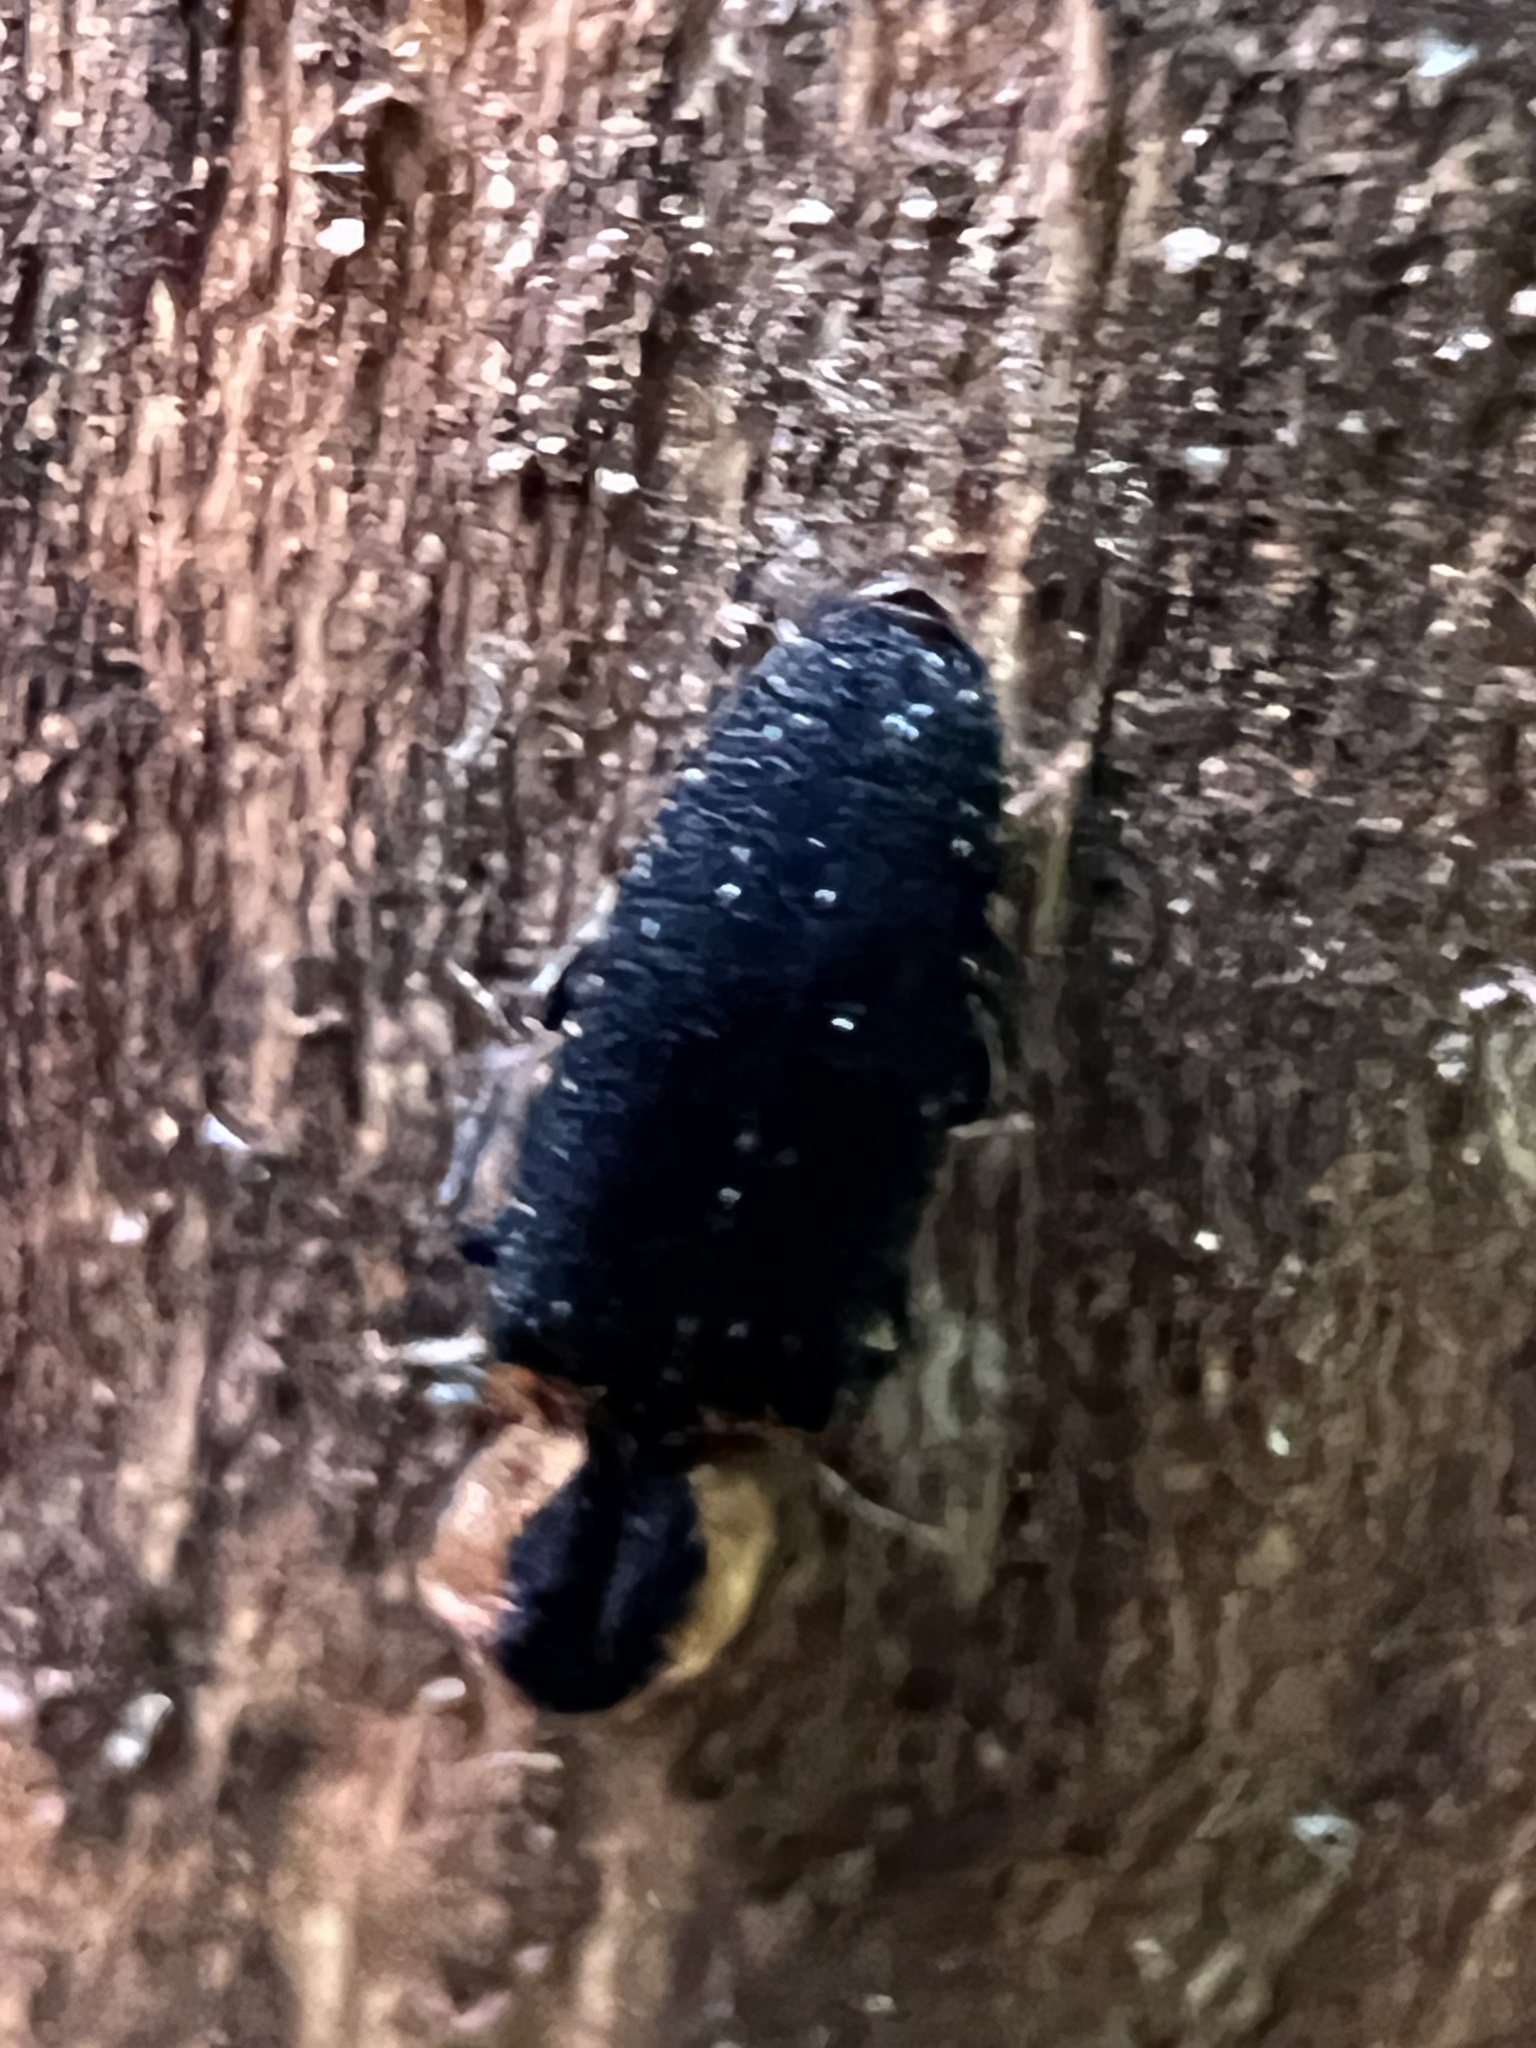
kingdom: Animalia
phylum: Arthropoda
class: Insecta
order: Coleoptera
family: Elateridae
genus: Lacon
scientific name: Lacon discoideus
